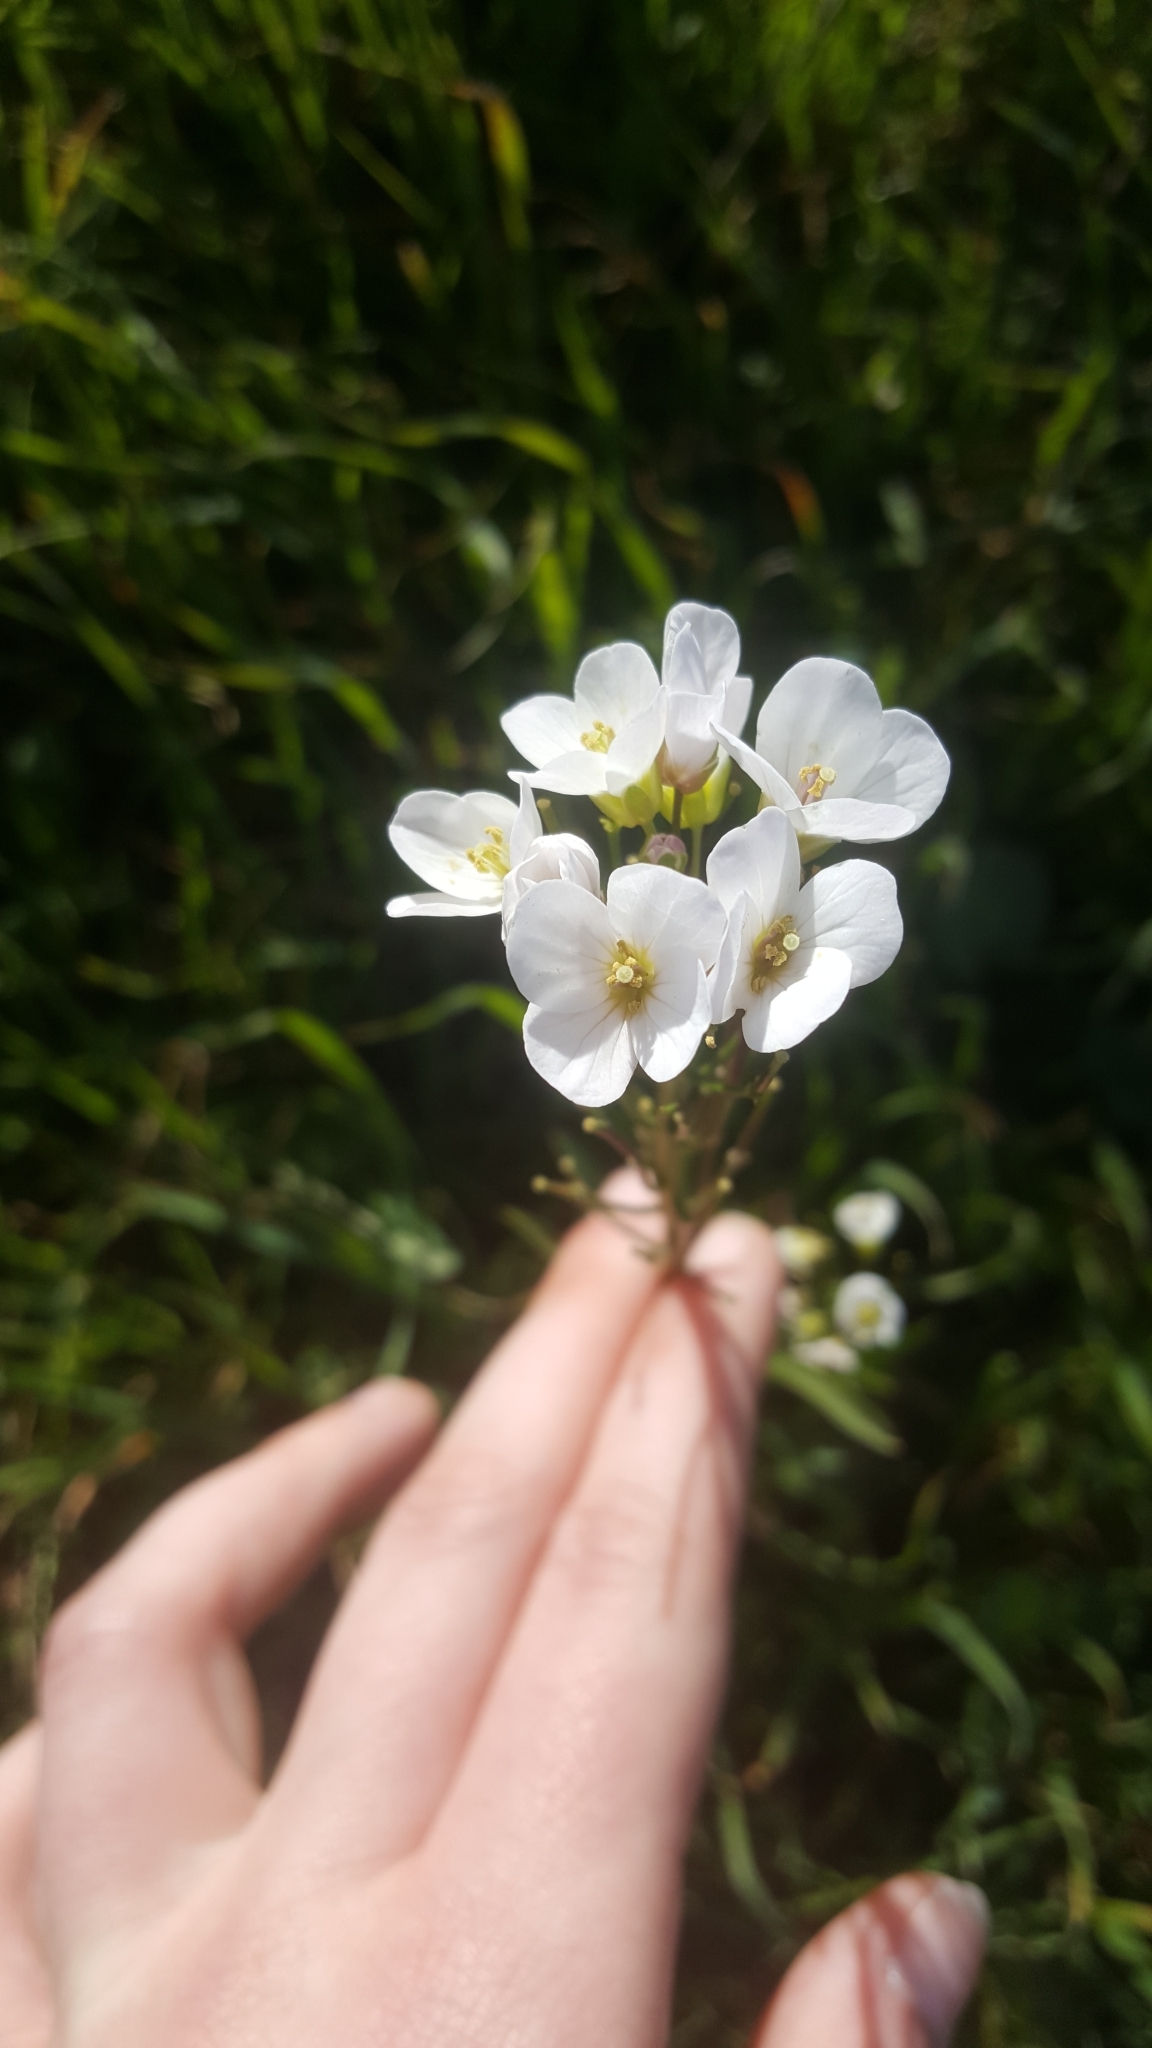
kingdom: Plantae
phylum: Tracheophyta
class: Magnoliopsida
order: Brassicales
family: Brassicaceae
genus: Cardamine
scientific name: Cardamine californica
